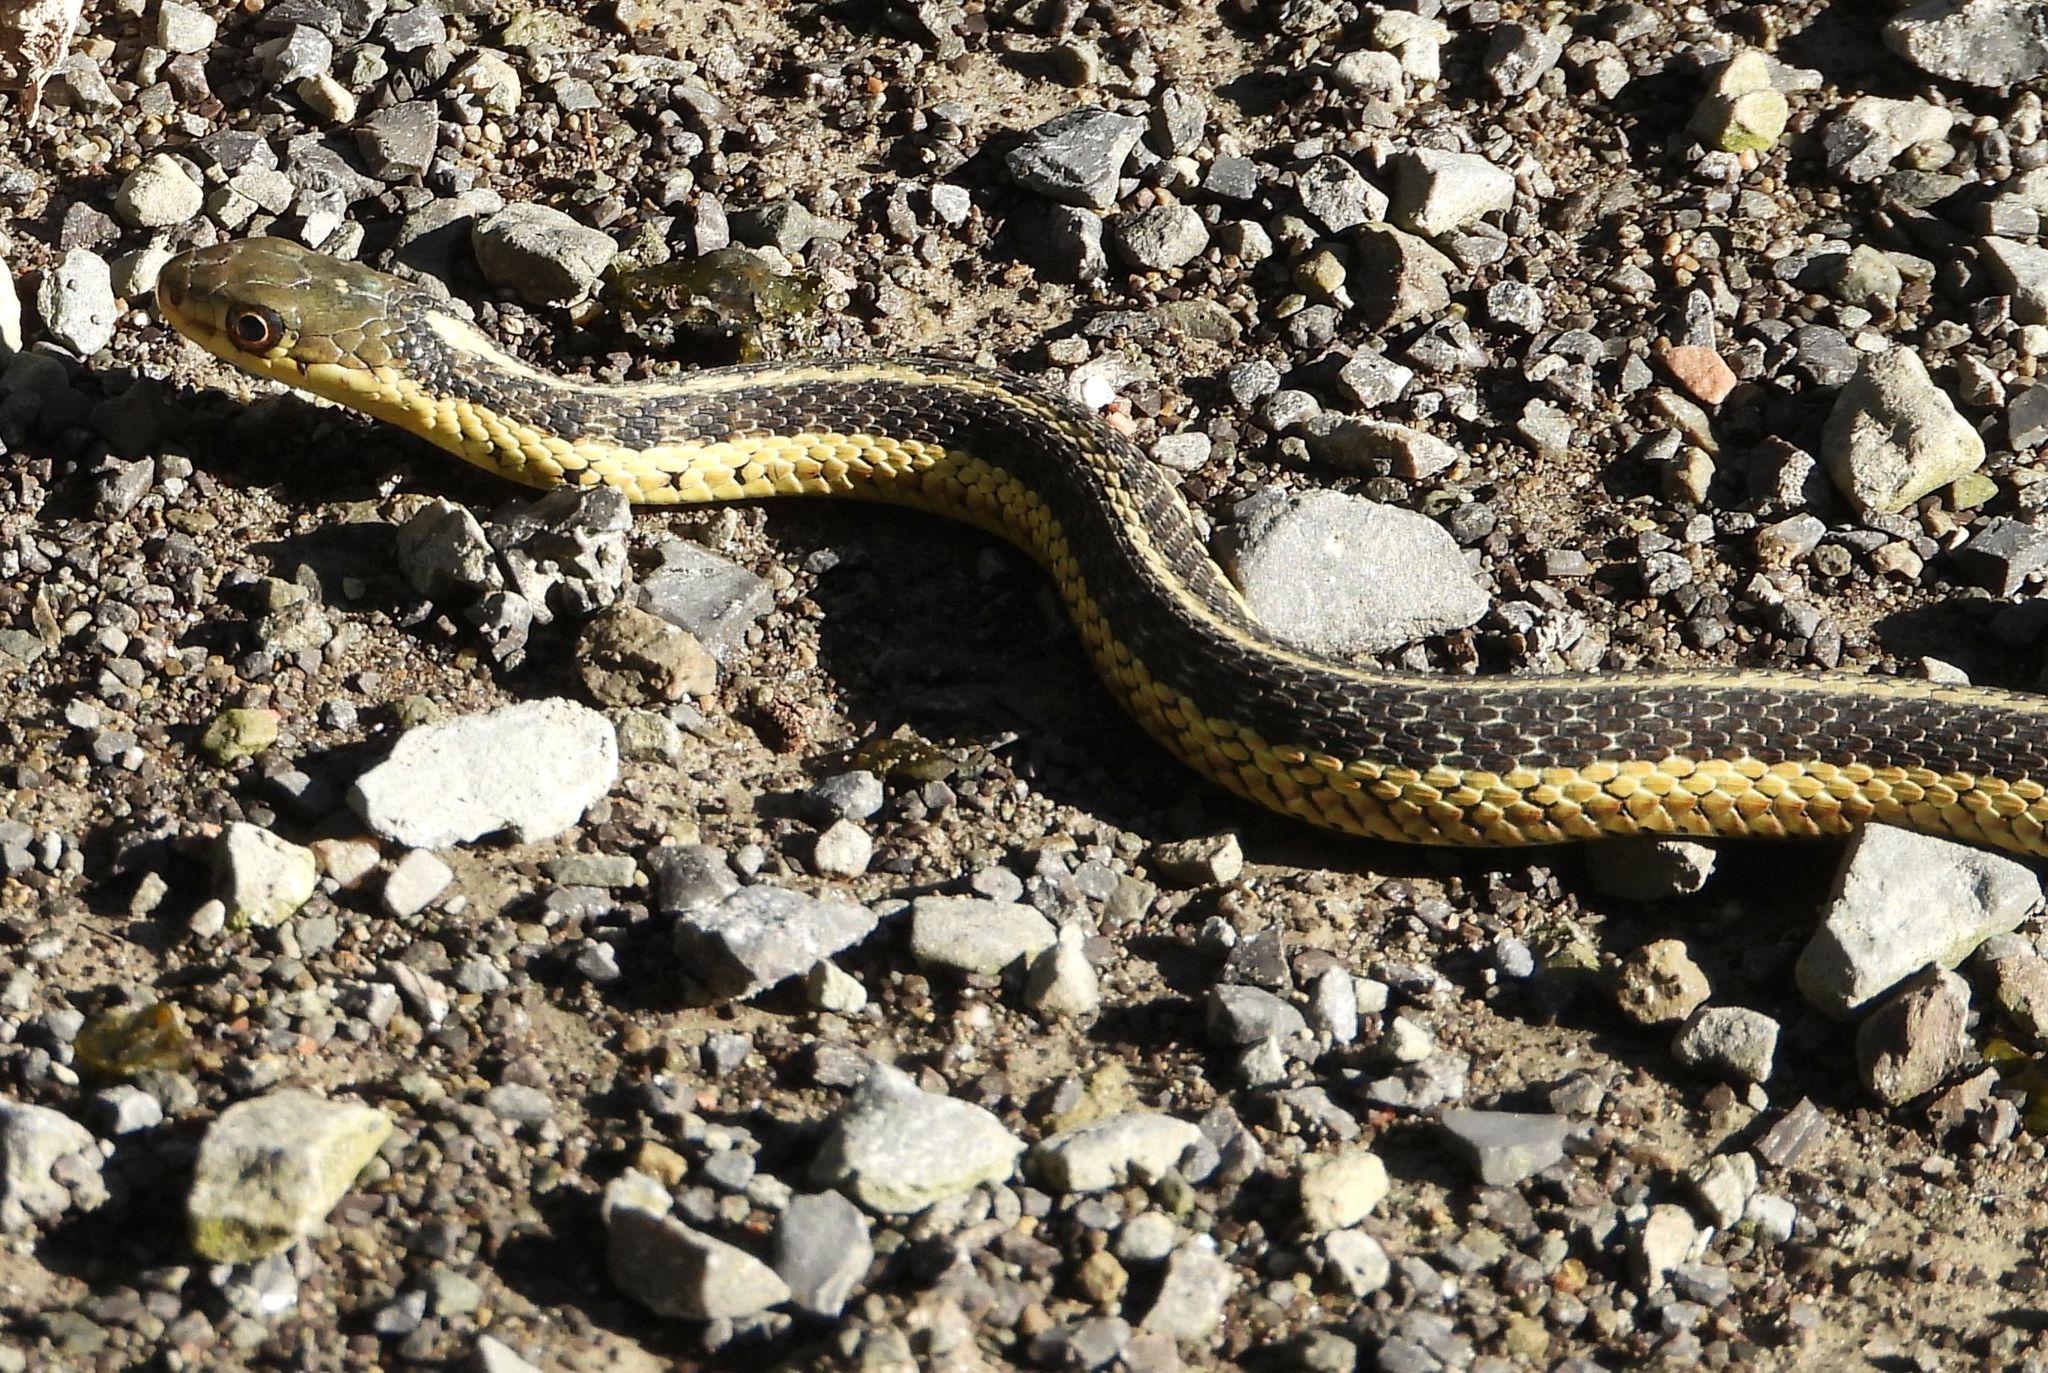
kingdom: Animalia
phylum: Chordata
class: Squamata
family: Colubridae
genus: Thamnophis
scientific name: Thamnophis sirtalis
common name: Common garter snake
